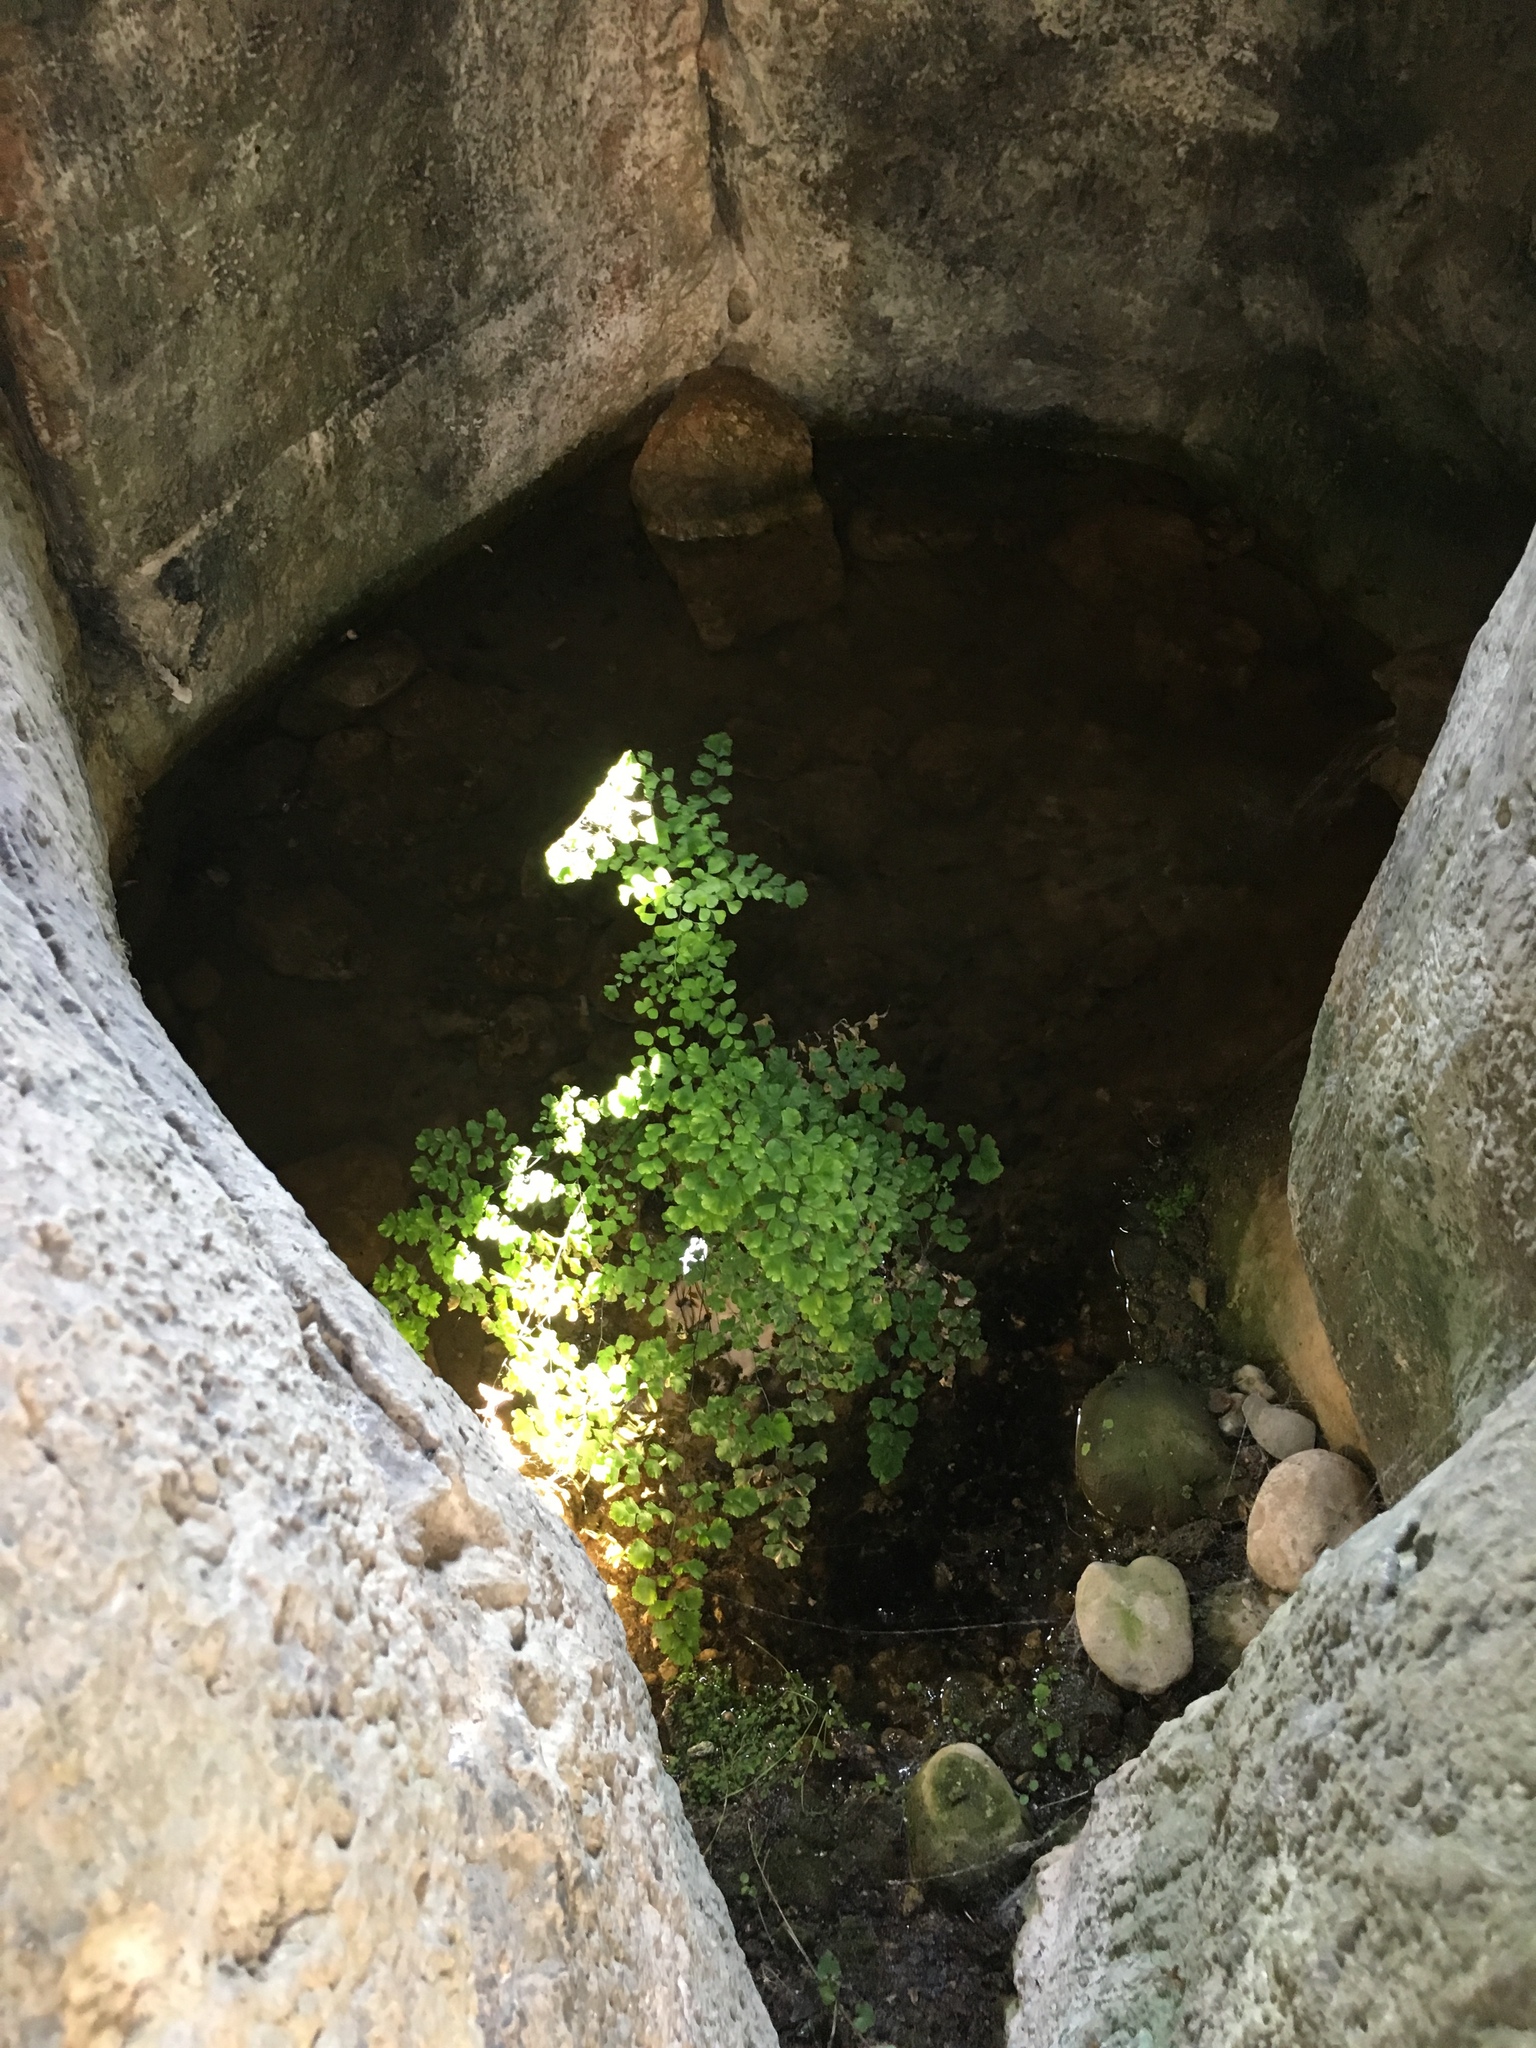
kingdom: Plantae
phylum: Tracheophyta
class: Polypodiopsida
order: Polypodiales
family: Pteridaceae
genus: Adiantum
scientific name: Adiantum capillus-veneris
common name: Maidenhair fern
